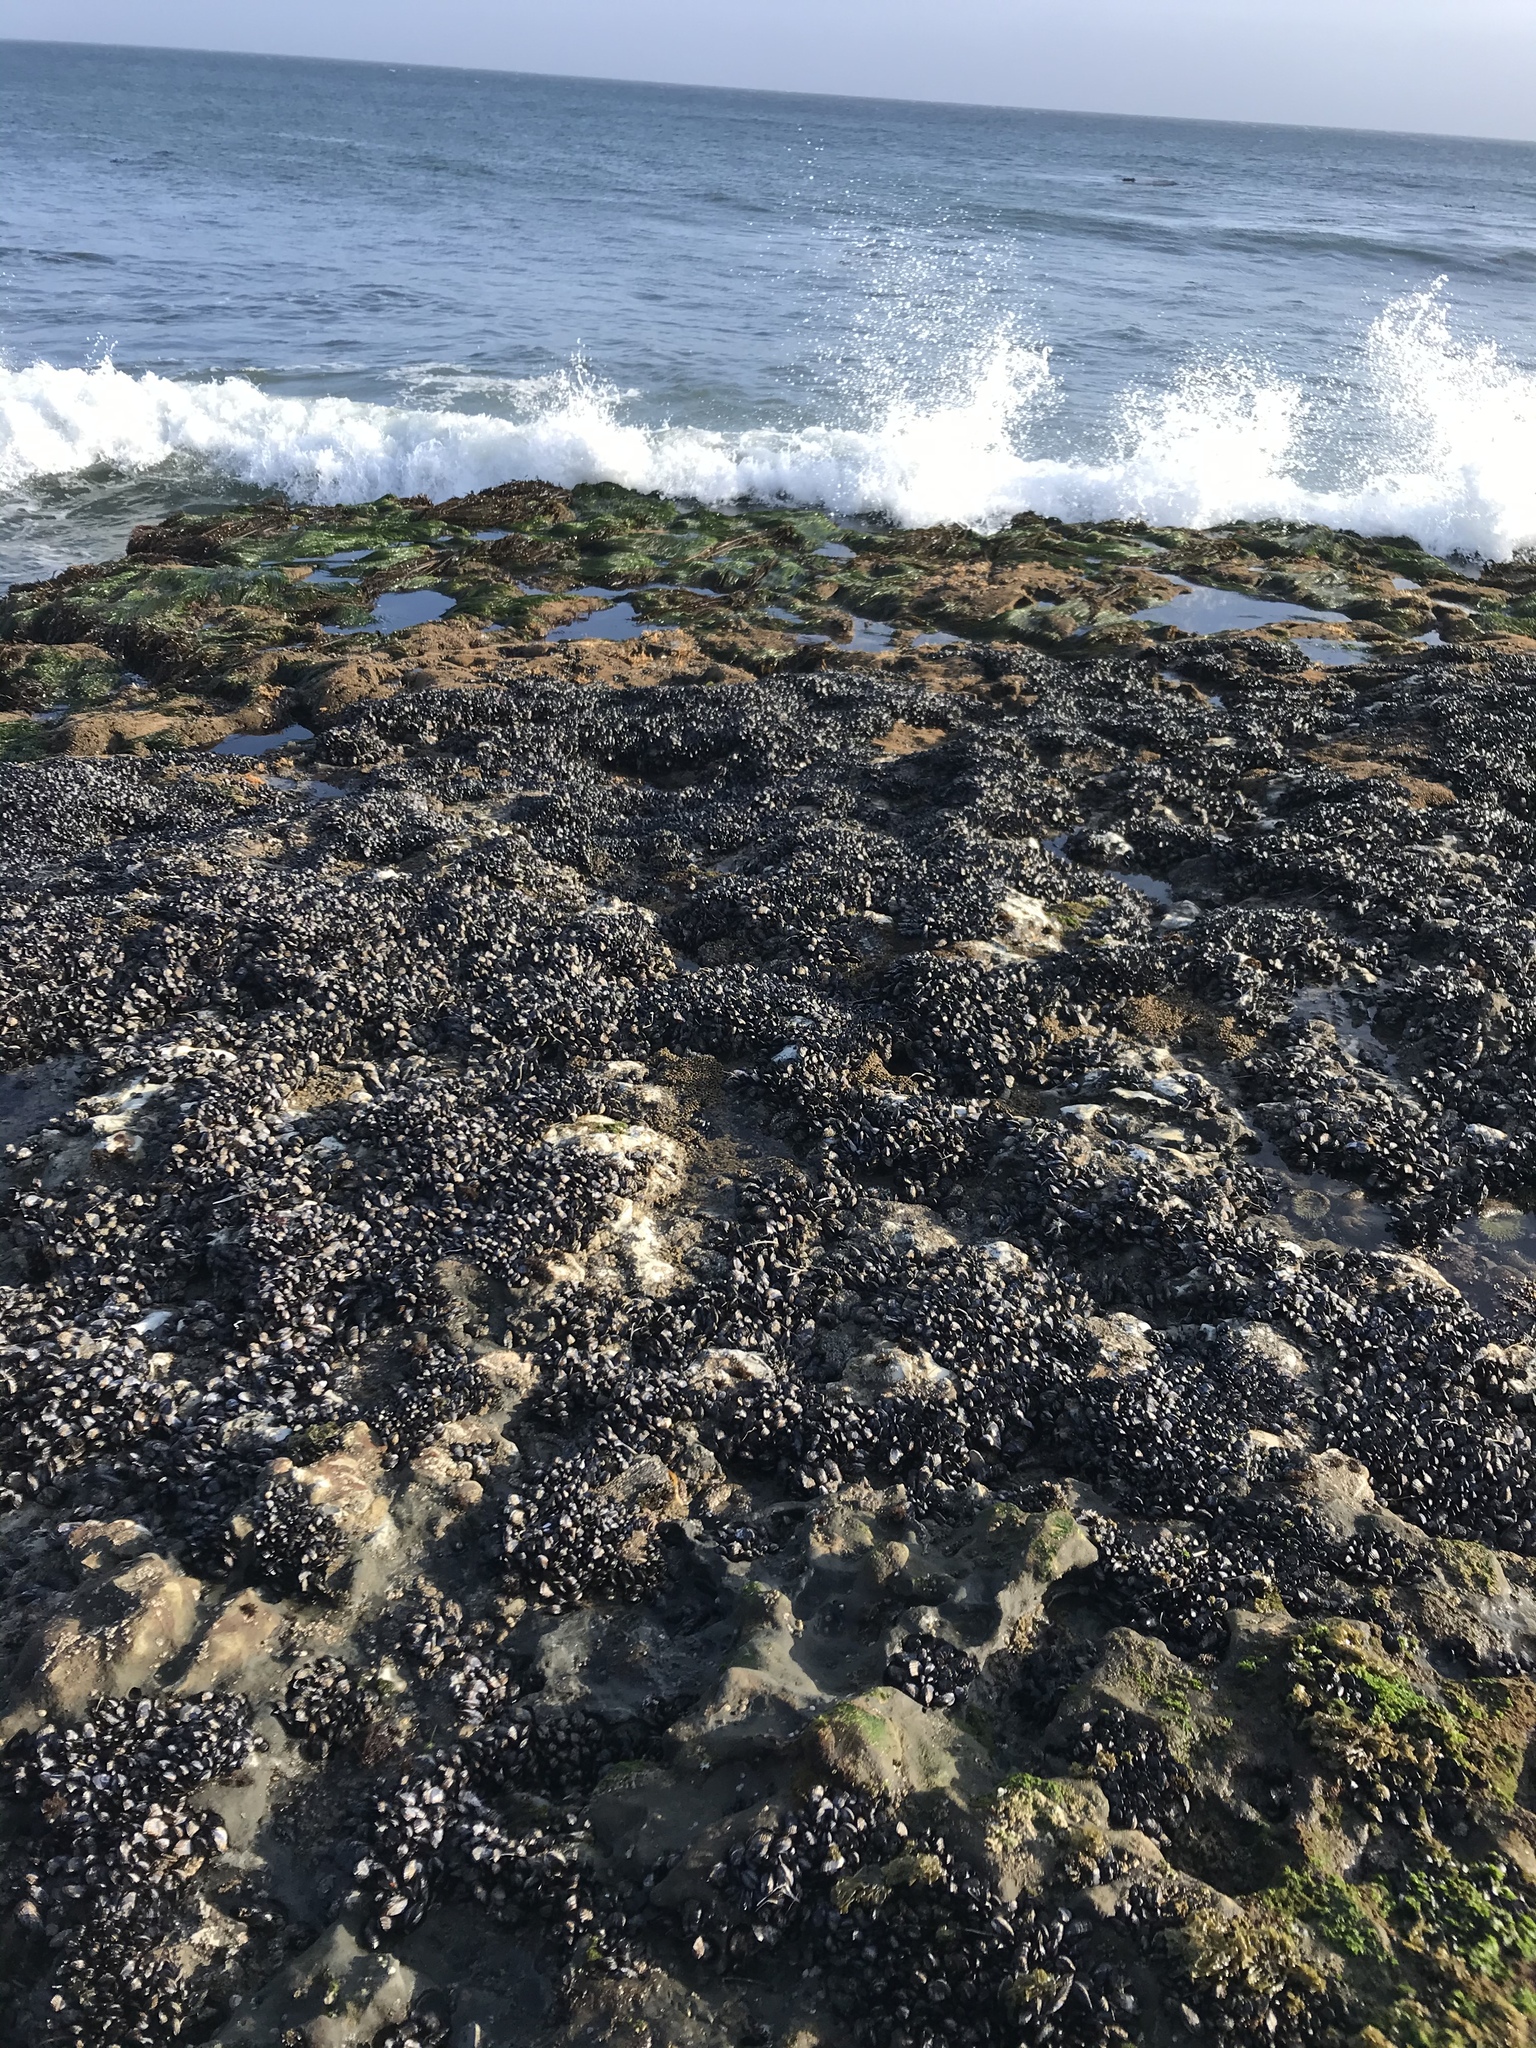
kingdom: Animalia
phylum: Mollusca
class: Bivalvia
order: Mytilida
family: Mytilidae
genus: Mytilus
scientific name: Mytilus californianus
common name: California mussel
